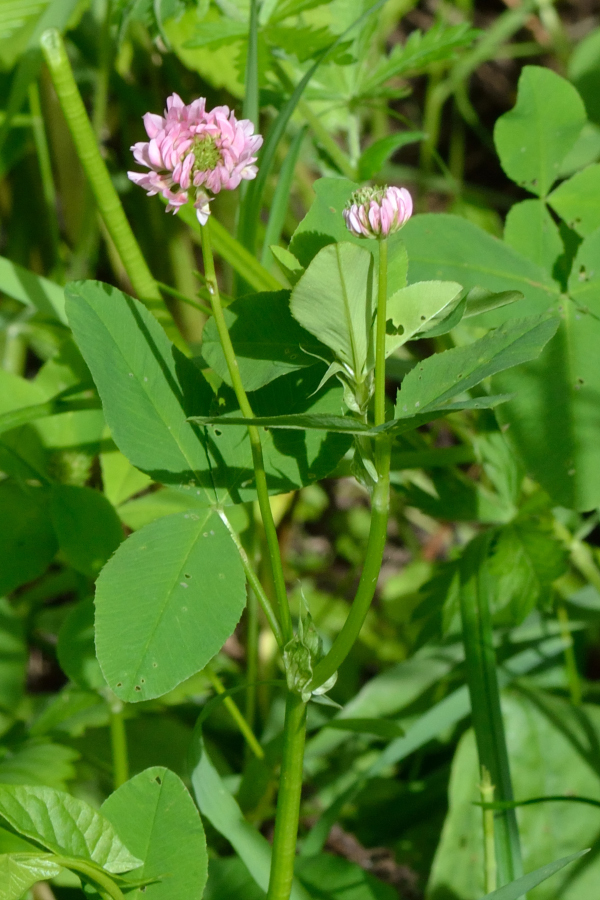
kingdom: Plantae
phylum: Tracheophyta
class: Magnoliopsida
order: Fabales
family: Fabaceae
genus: Trifolium
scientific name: Trifolium hybridum
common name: Alsike clover
